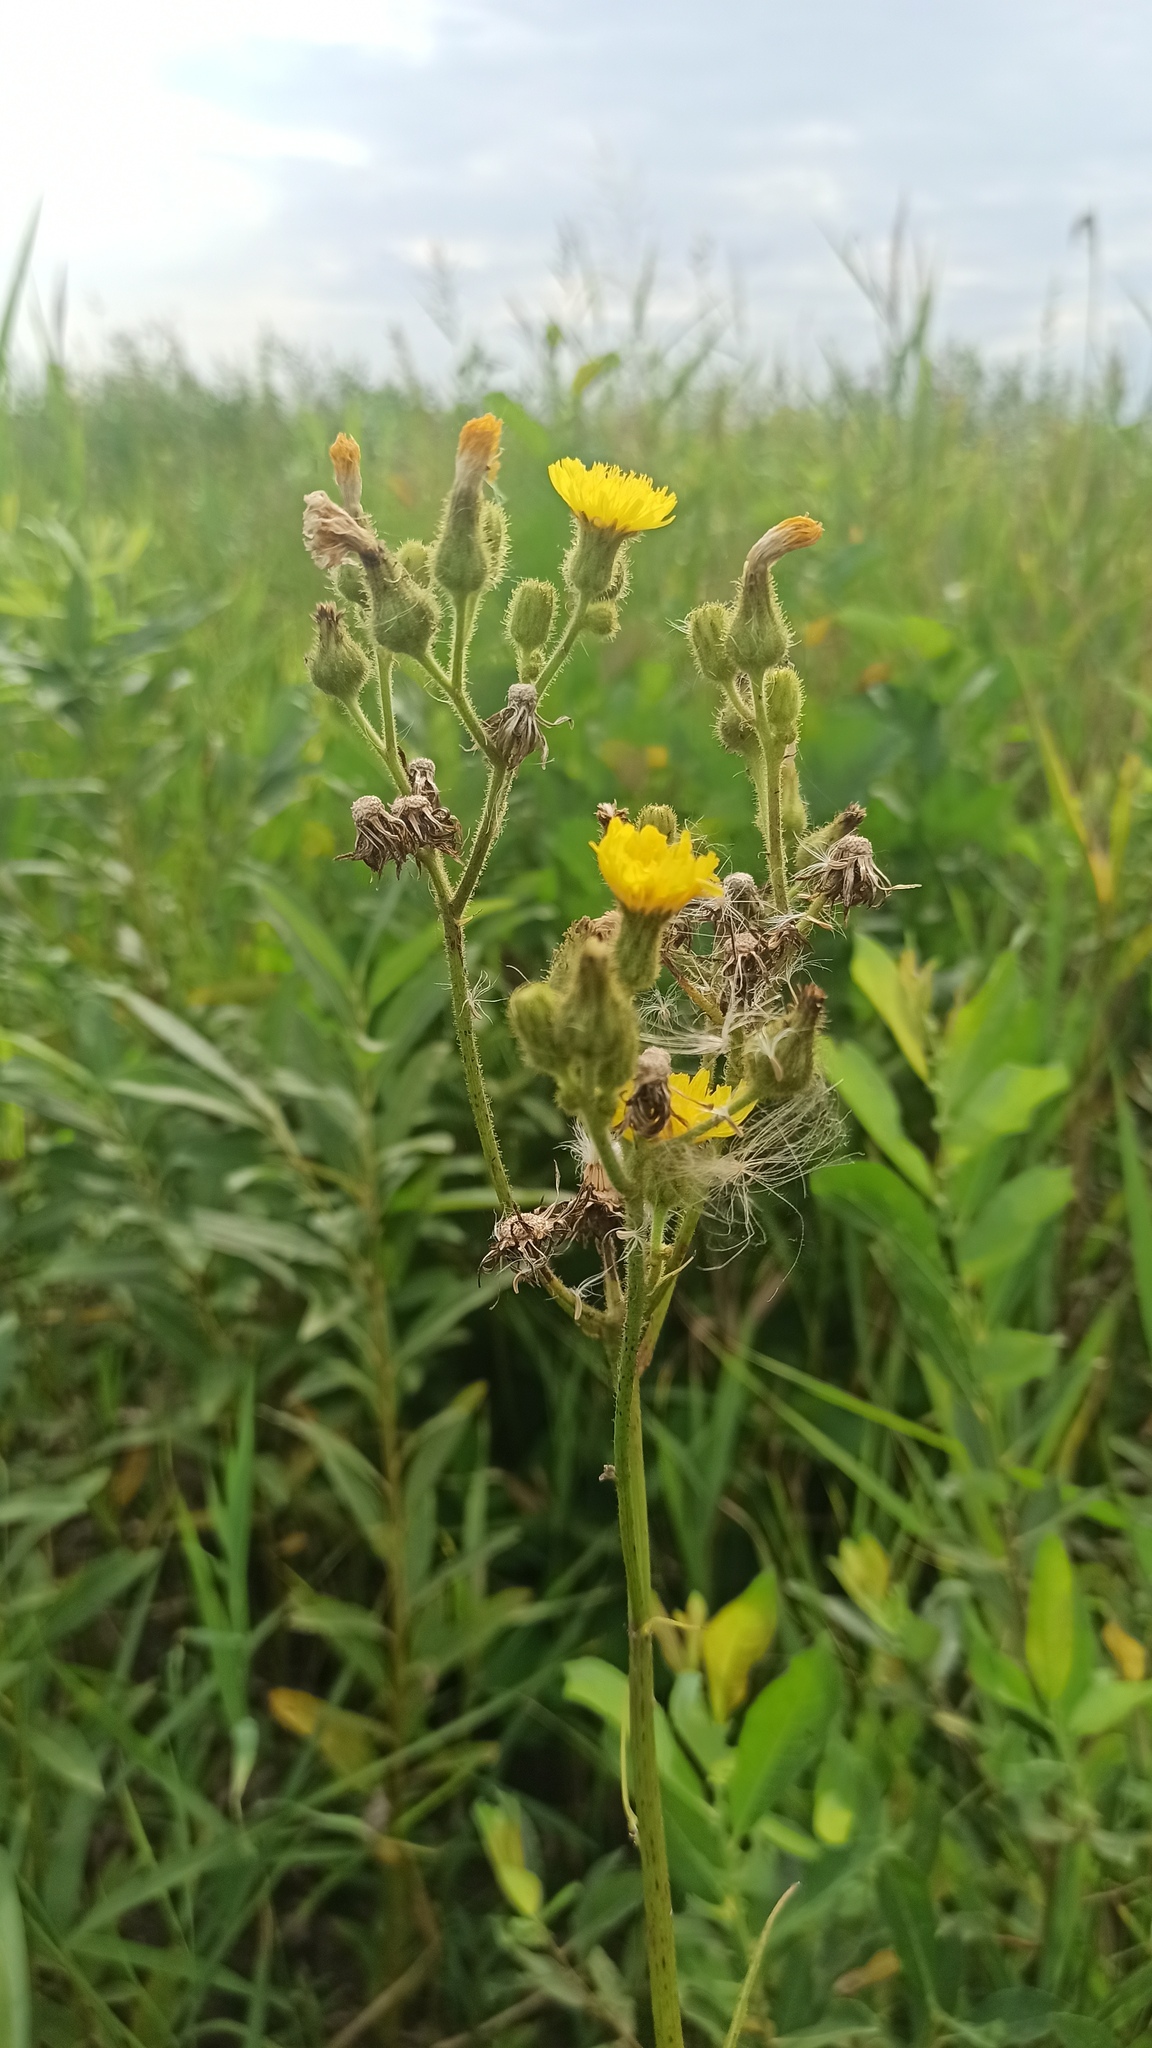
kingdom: Plantae
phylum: Tracheophyta
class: Magnoliopsida
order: Asterales
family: Asteraceae
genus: Sonchus
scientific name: Sonchus palustris
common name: Marsh sow-thistle
